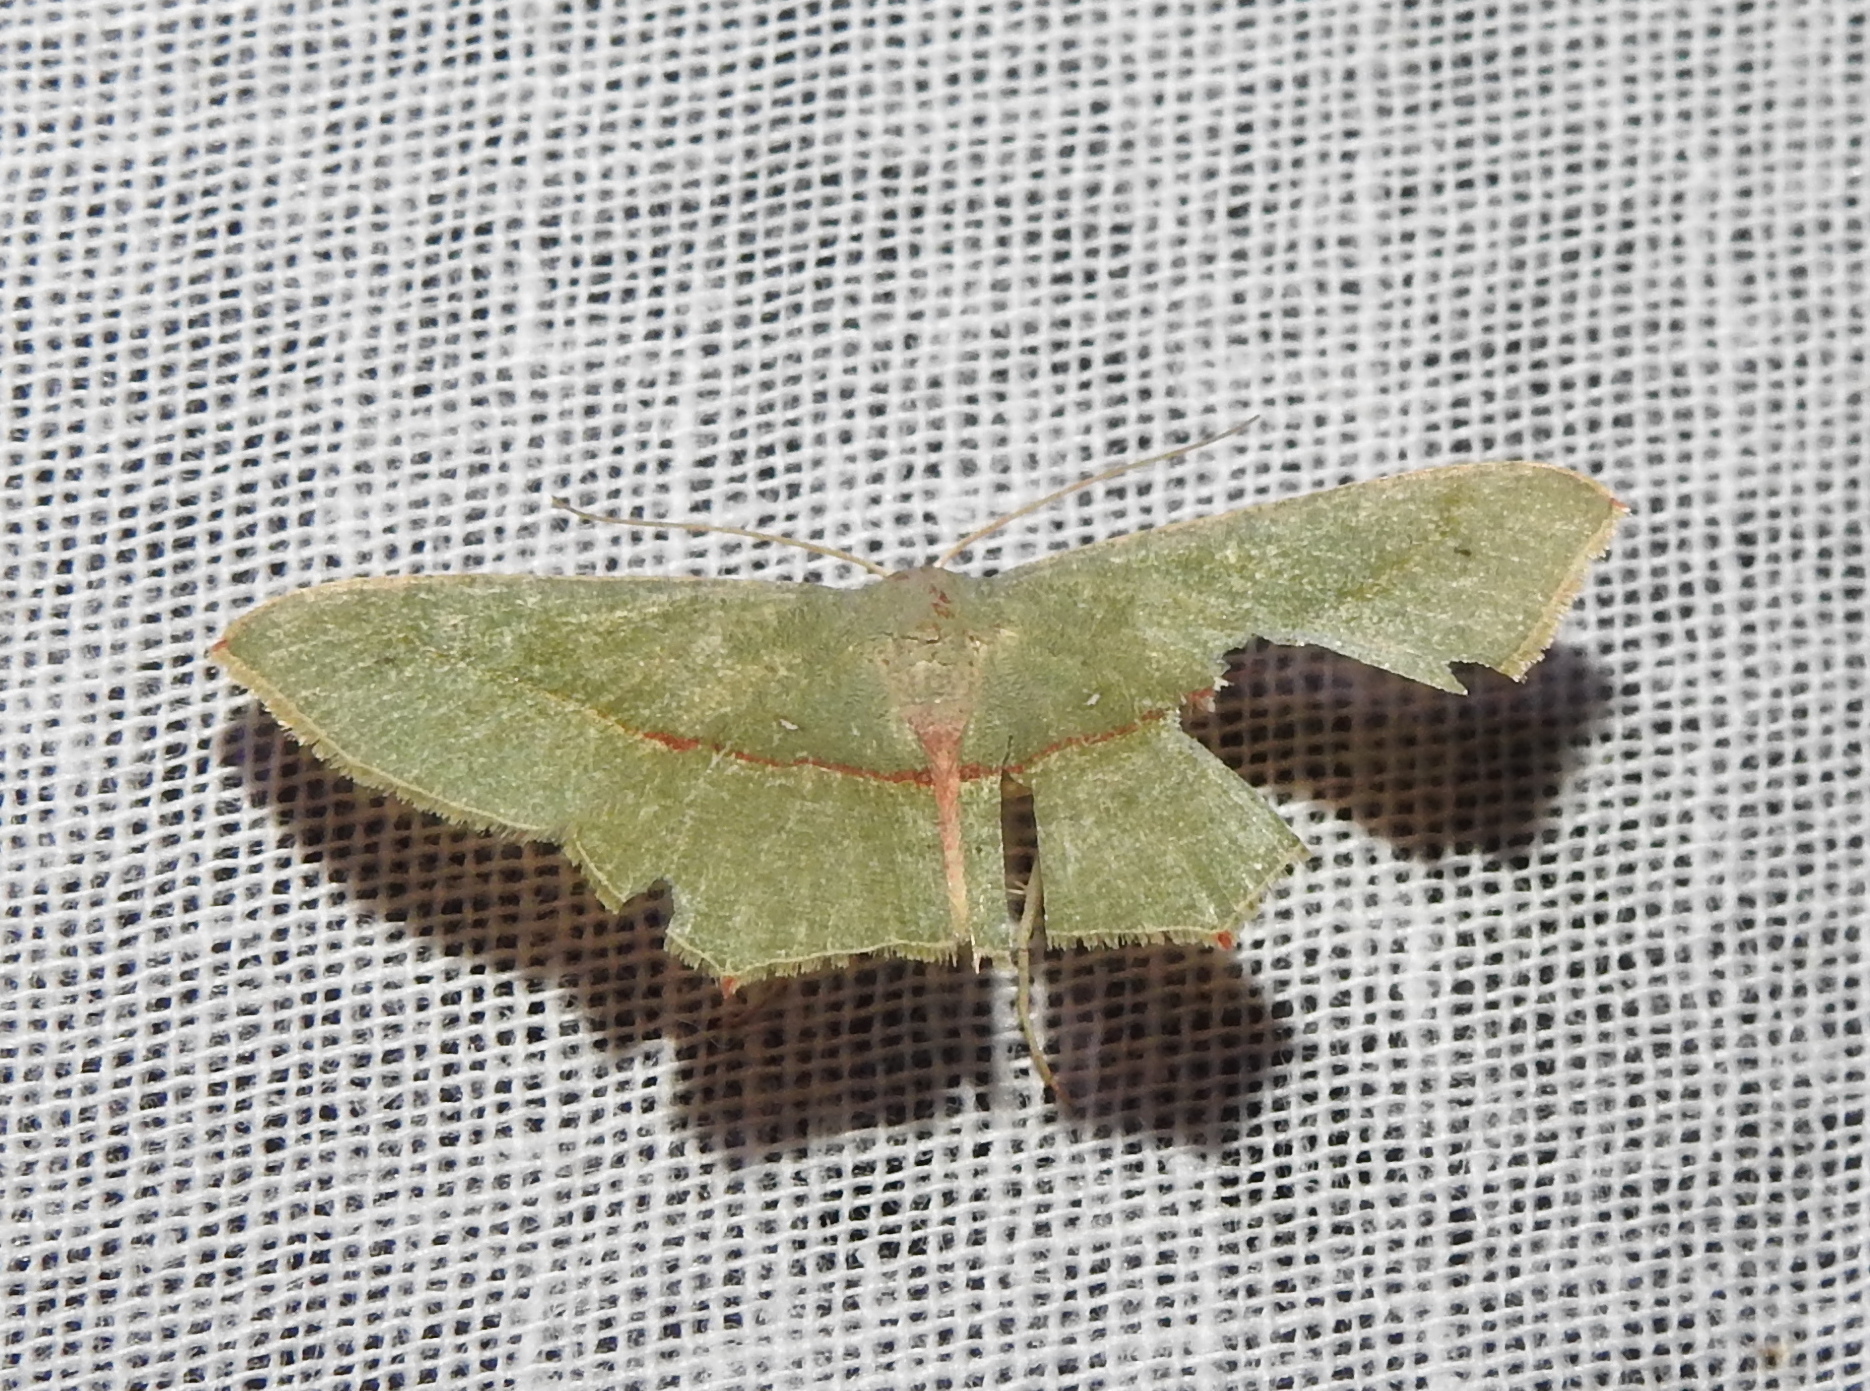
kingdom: Animalia
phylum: Arthropoda
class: Insecta
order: Lepidoptera
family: Geometridae
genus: Traminda
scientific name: Traminda mundissima
